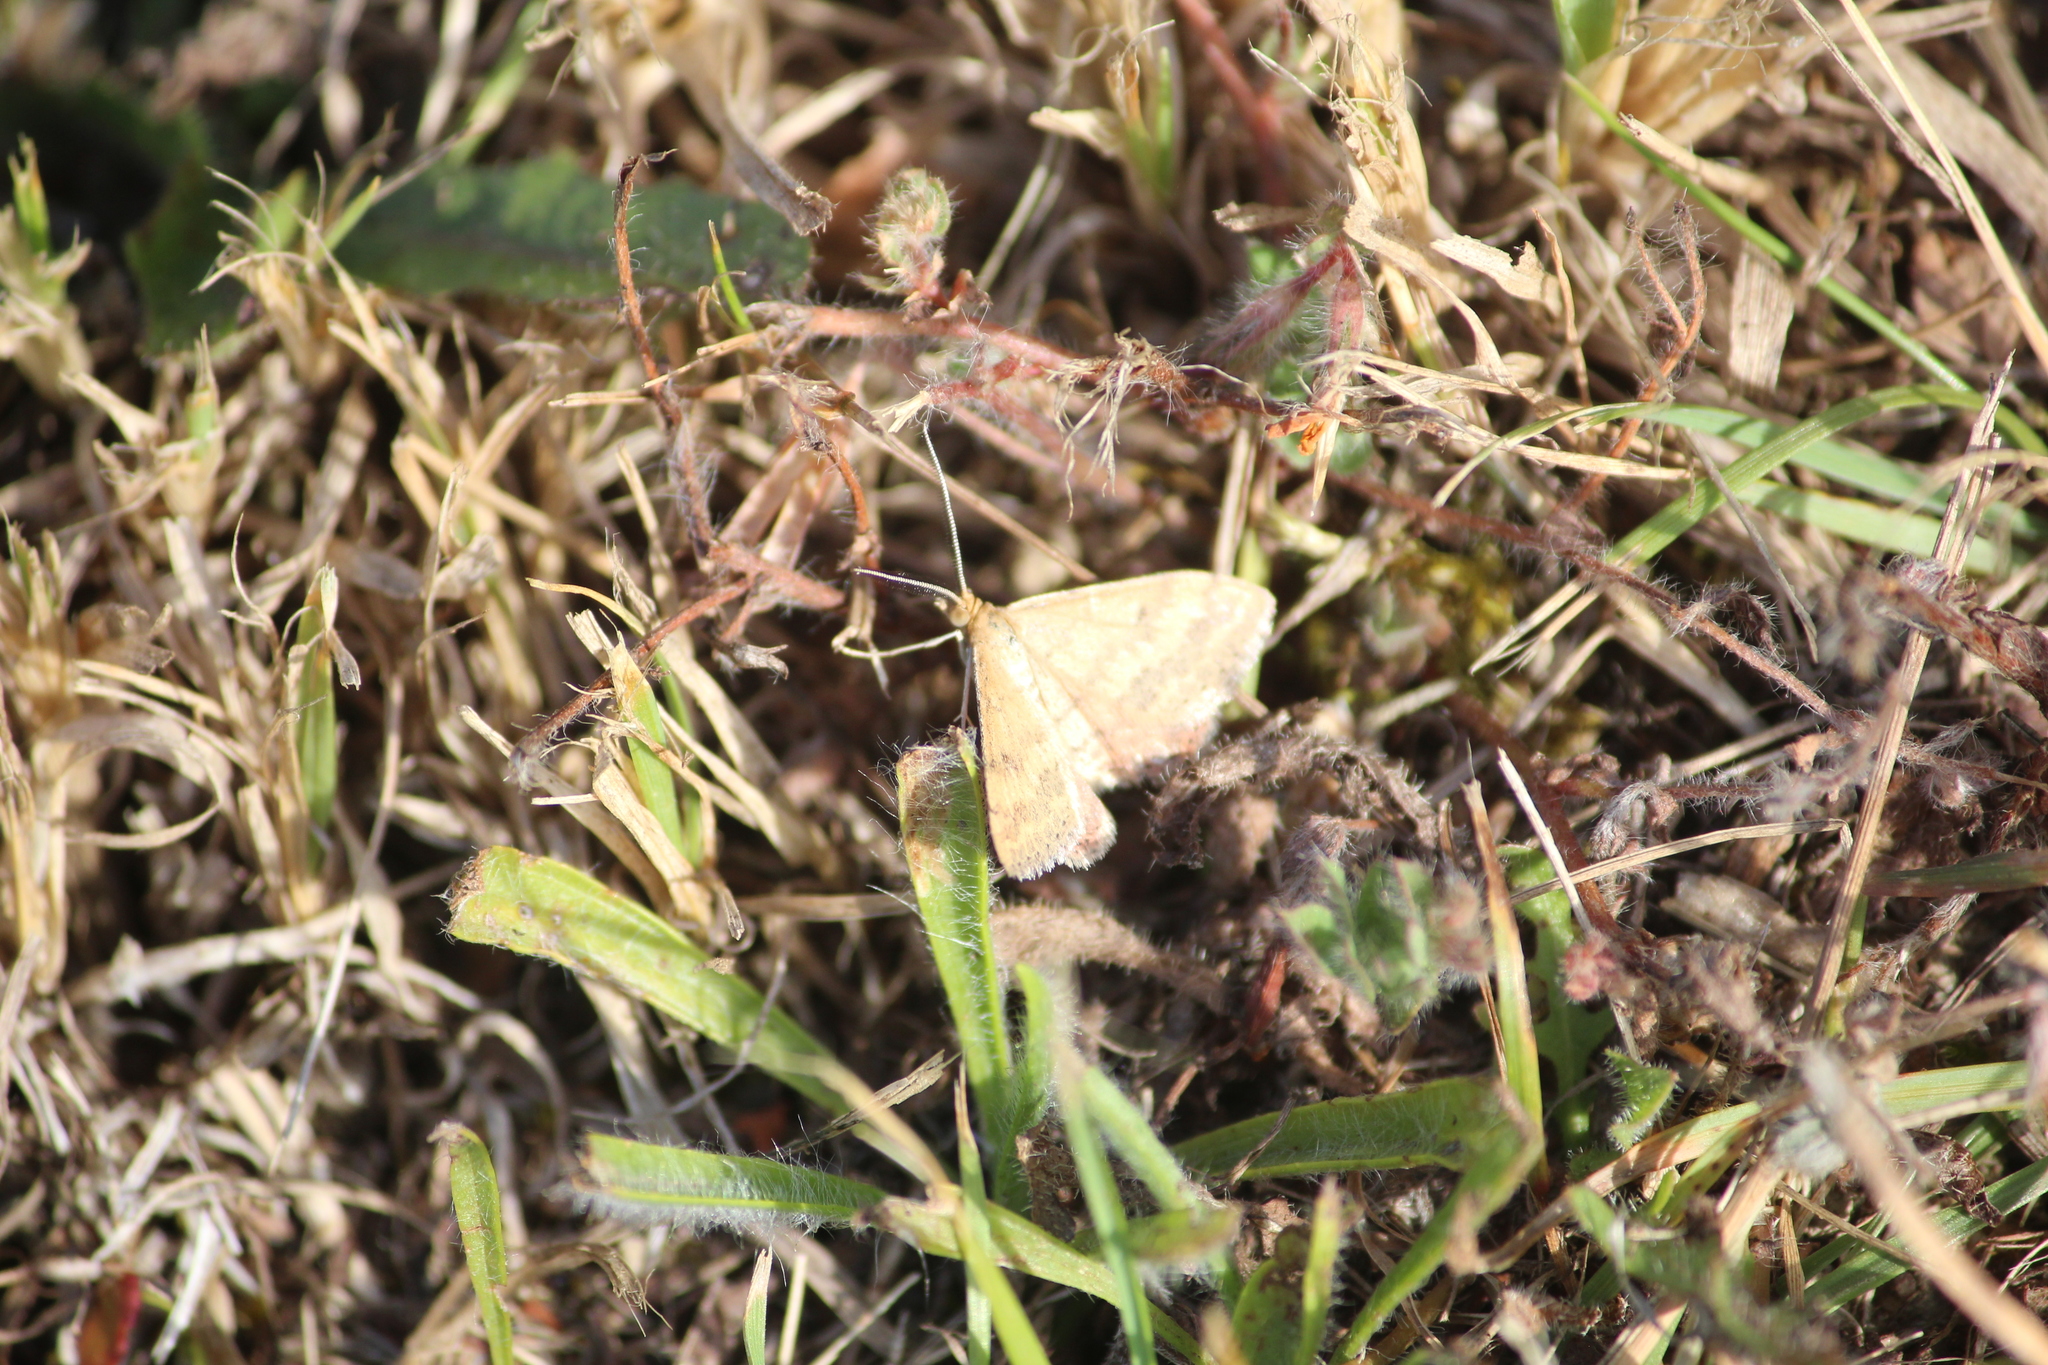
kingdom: Animalia
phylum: Arthropoda
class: Insecta
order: Lepidoptera
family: Geometridae
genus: Scopula
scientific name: Scopula rubraria
